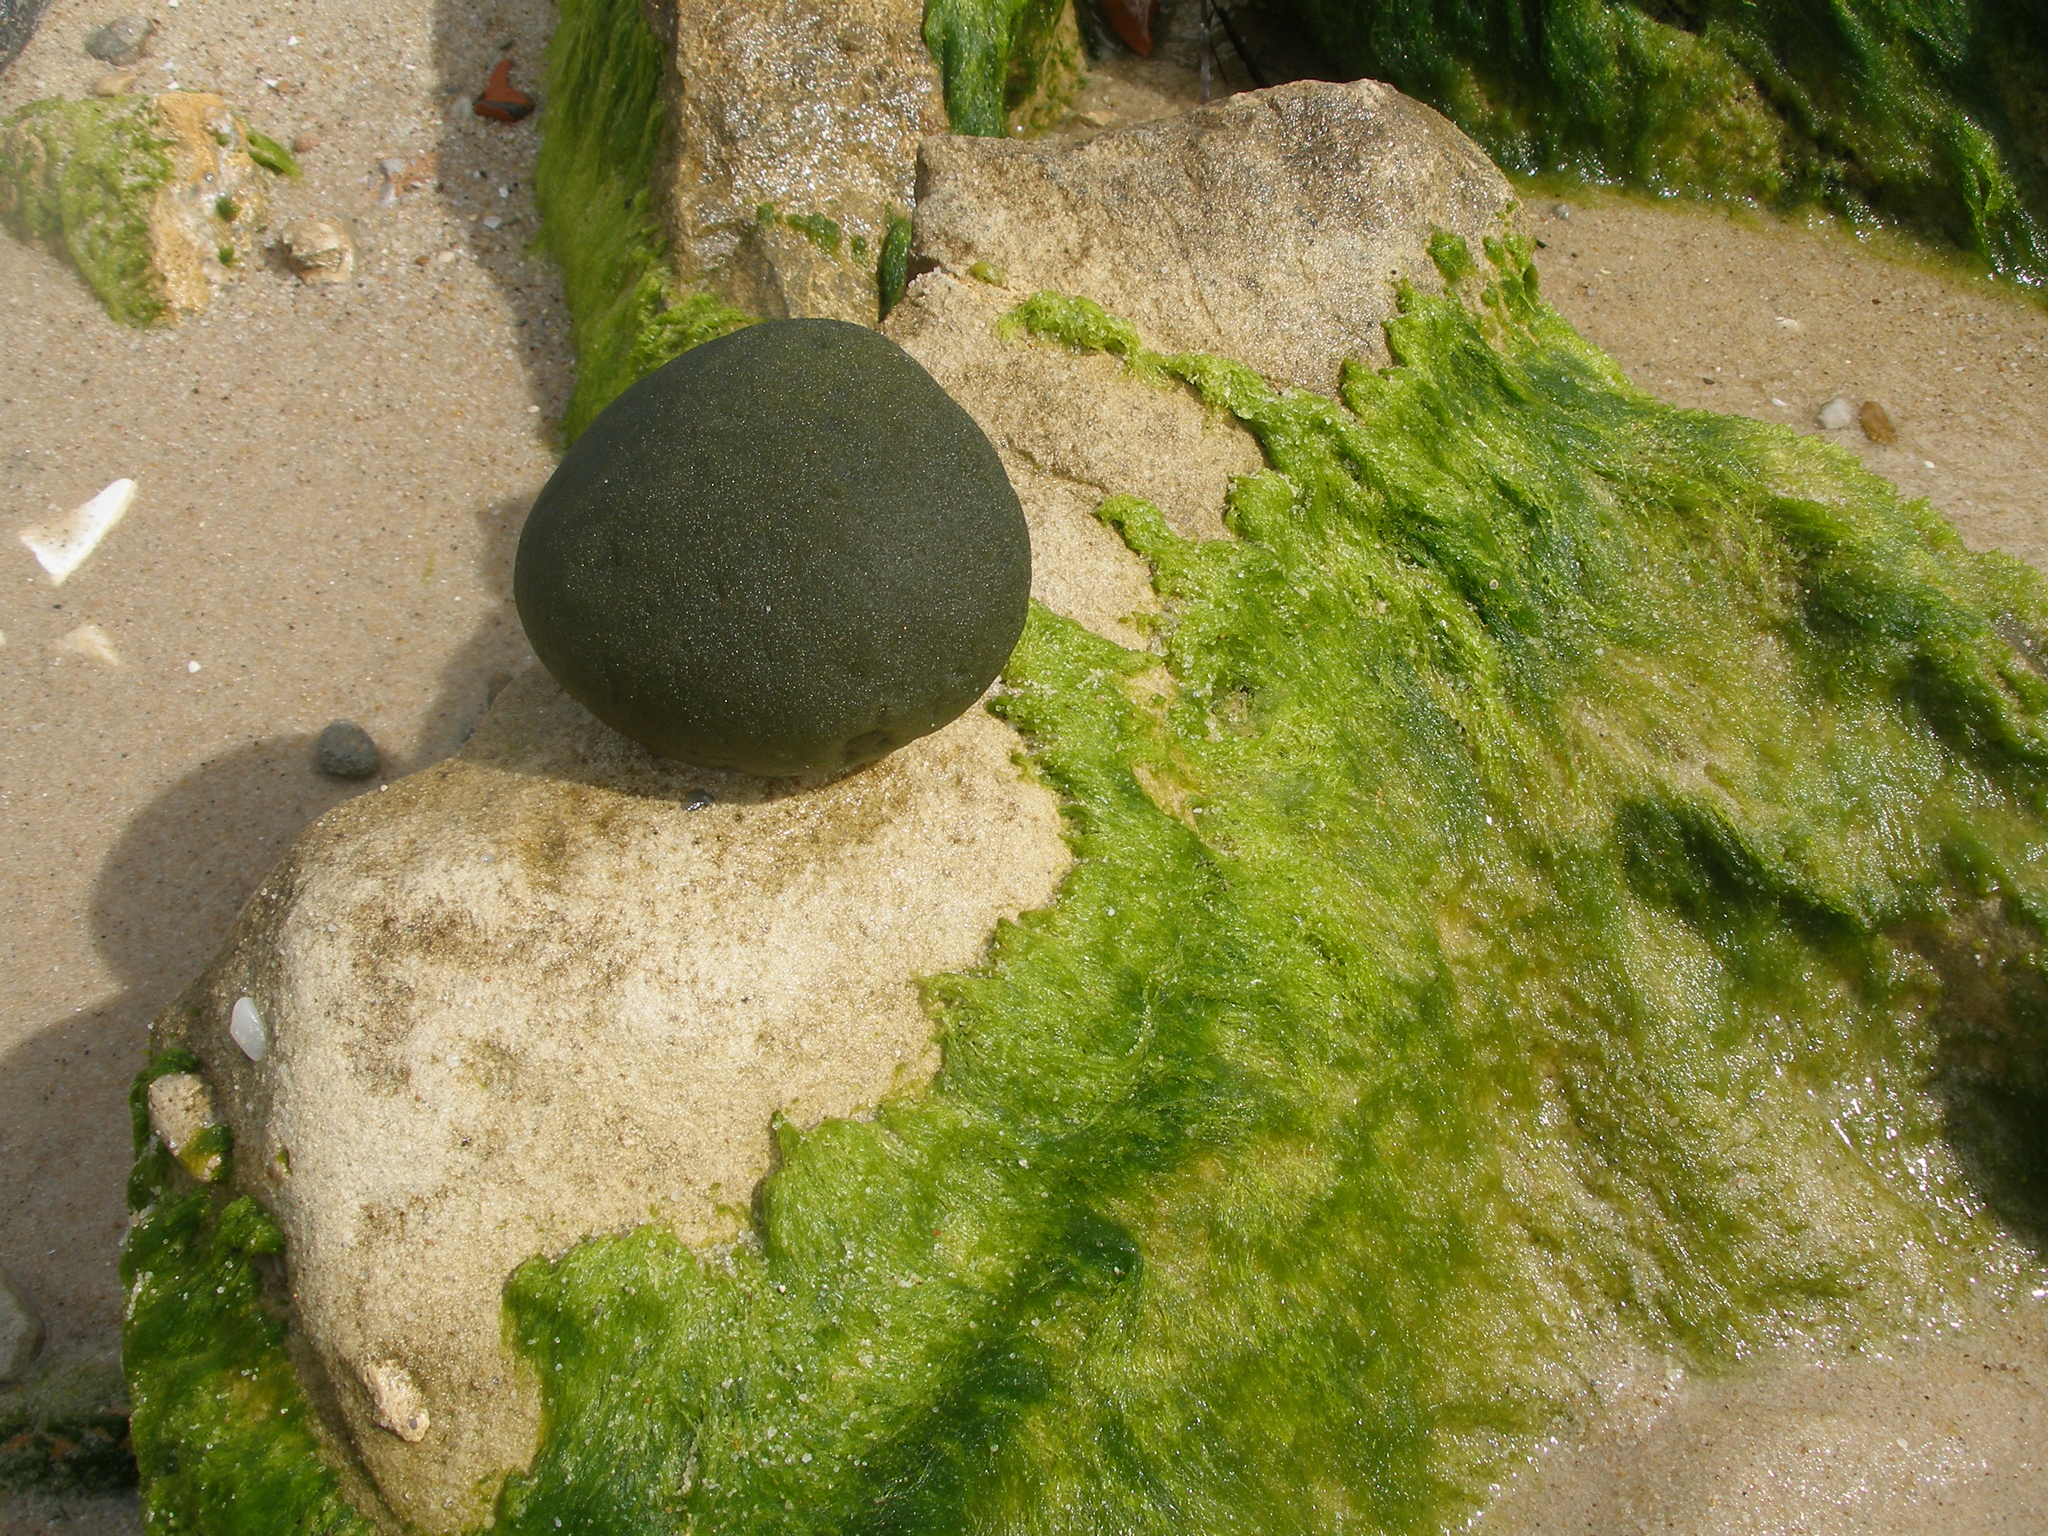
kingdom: Plantae
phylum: Chlorophyta
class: Ulvophyceae
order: Bryopsidales
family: Codiaceae
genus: Codium
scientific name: Codium bursa
